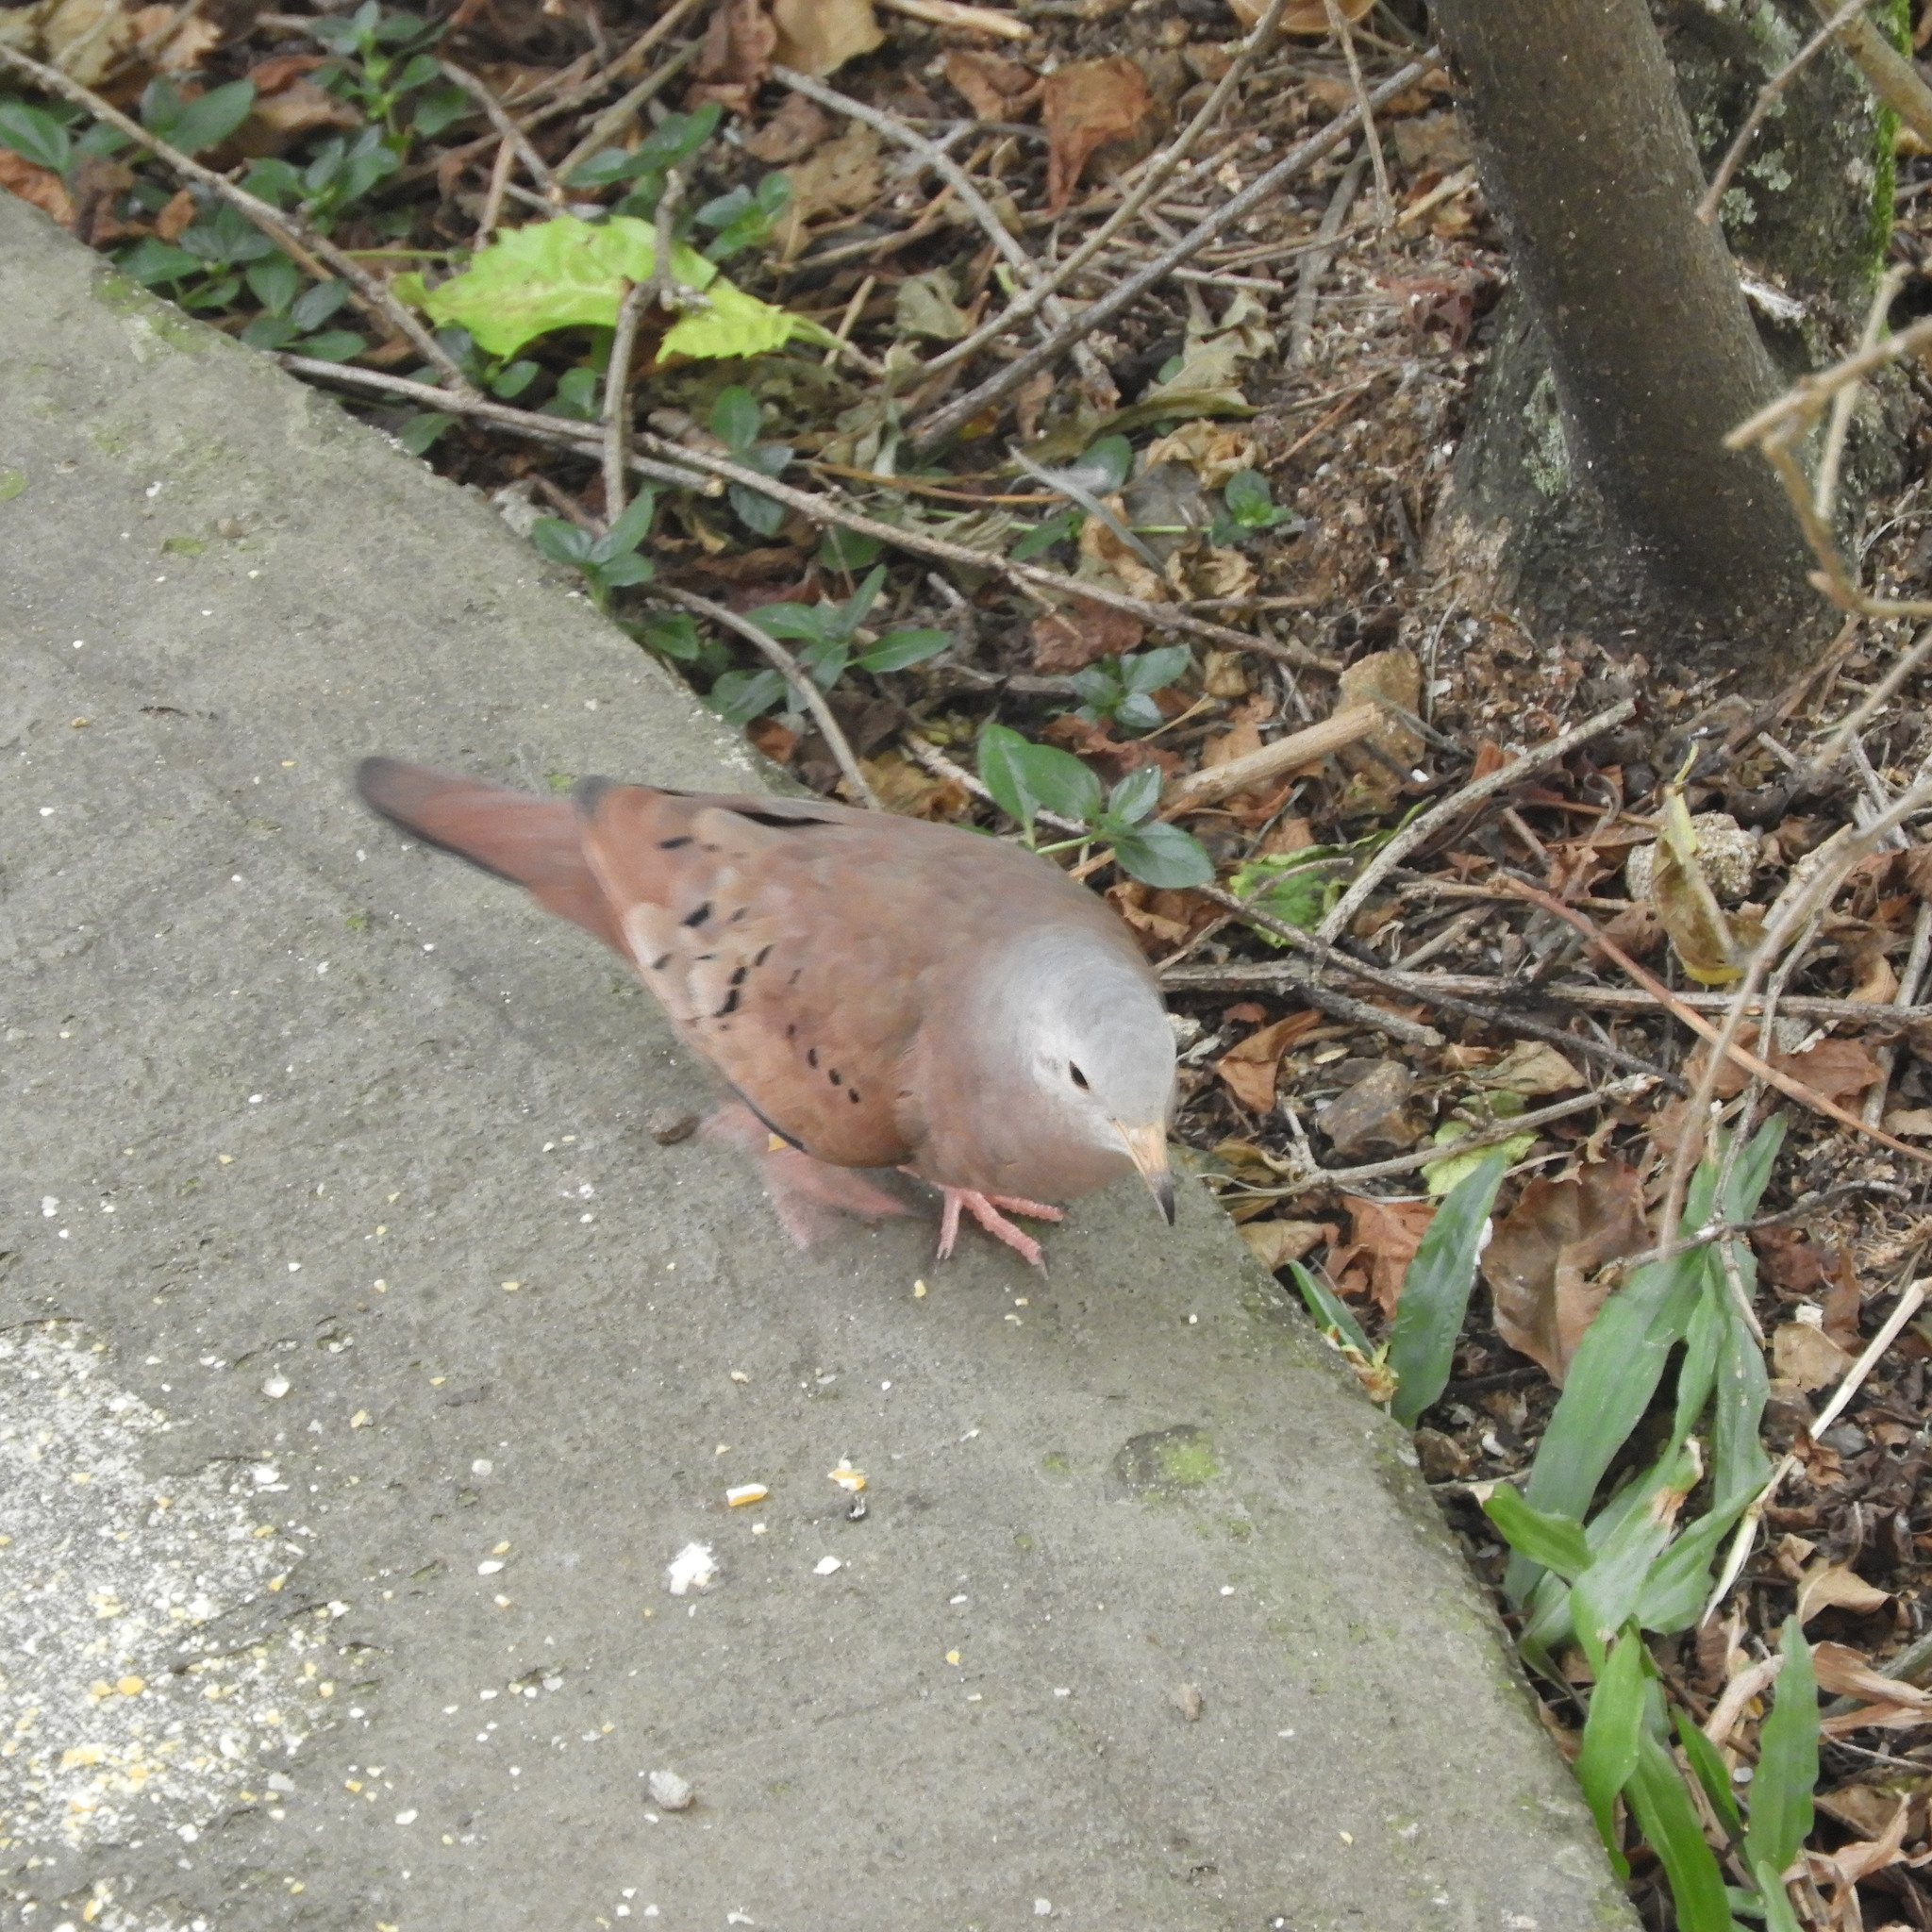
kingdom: Animalia
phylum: Chordata
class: Aves
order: Columbiformes
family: Columbidae
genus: Columbina
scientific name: Columbina talpacoti
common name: Ruddy ground dove
